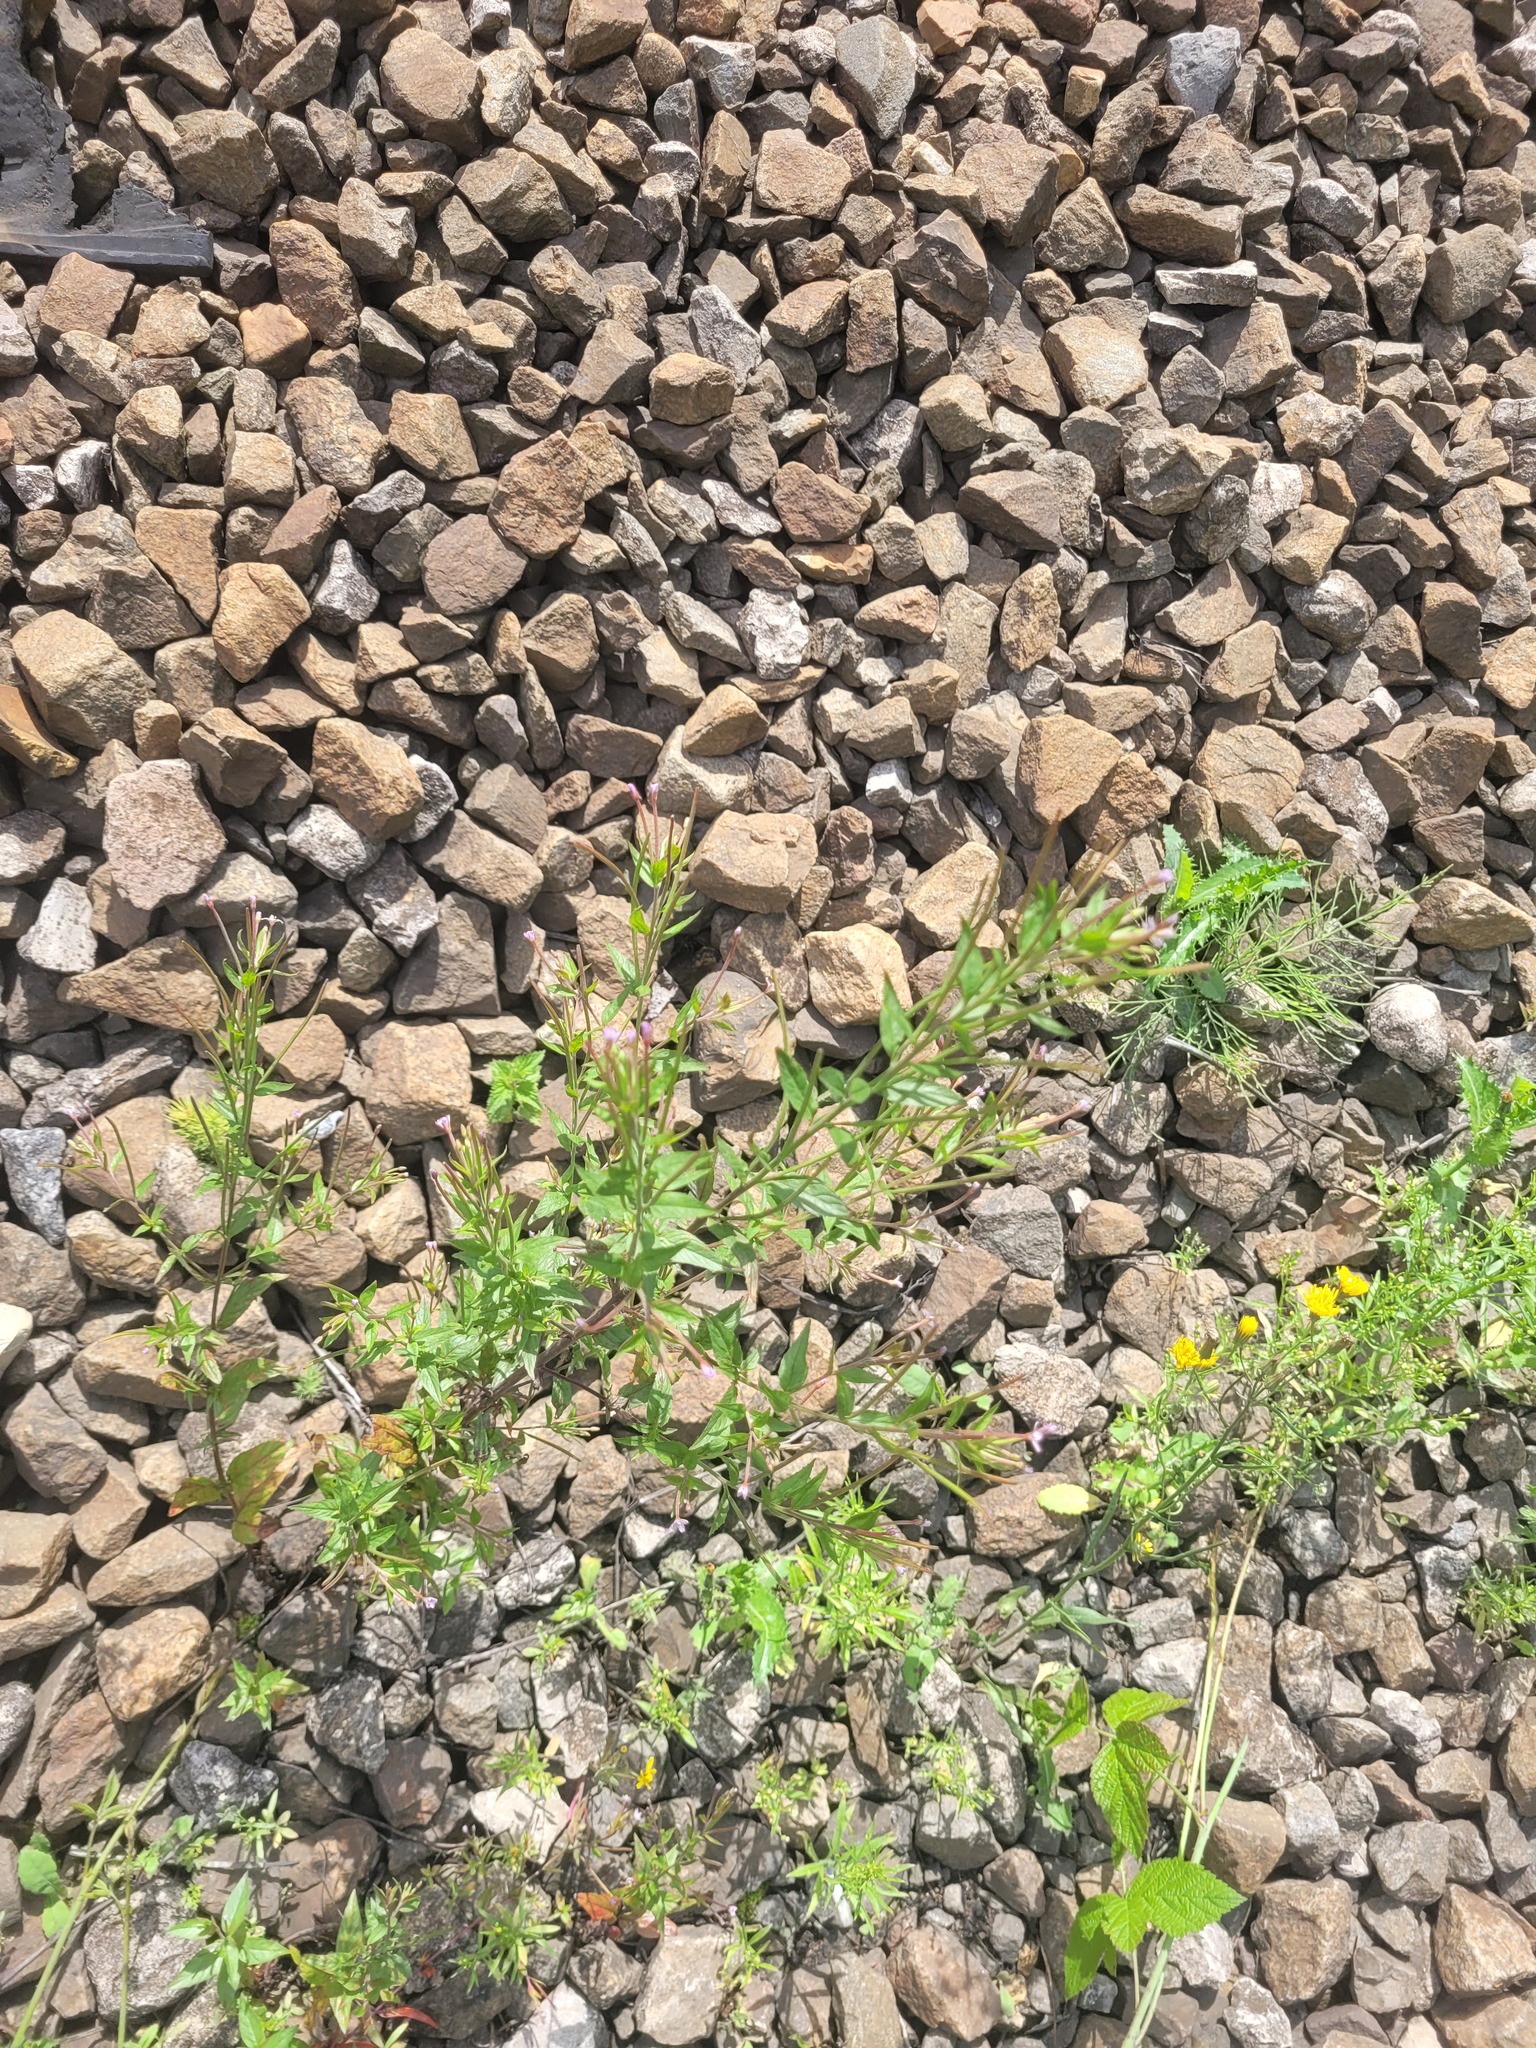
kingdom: Plantae
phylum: Tracheophyta
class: Magnoliopsida
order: Myrtales
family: Onagraceae
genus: Epilobium
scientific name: Epilobium ciliatum
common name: American willowherb
